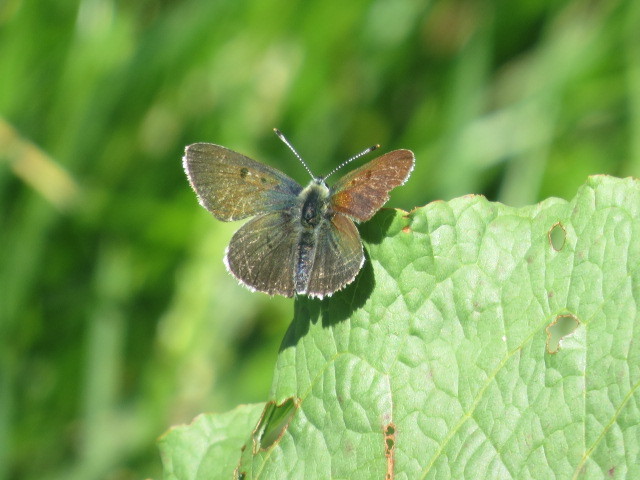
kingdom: Animalia
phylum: Arthropoda
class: Insecta
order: Lepidoptera
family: Lycaenidae
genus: Loweia
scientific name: Loweia tityrus
